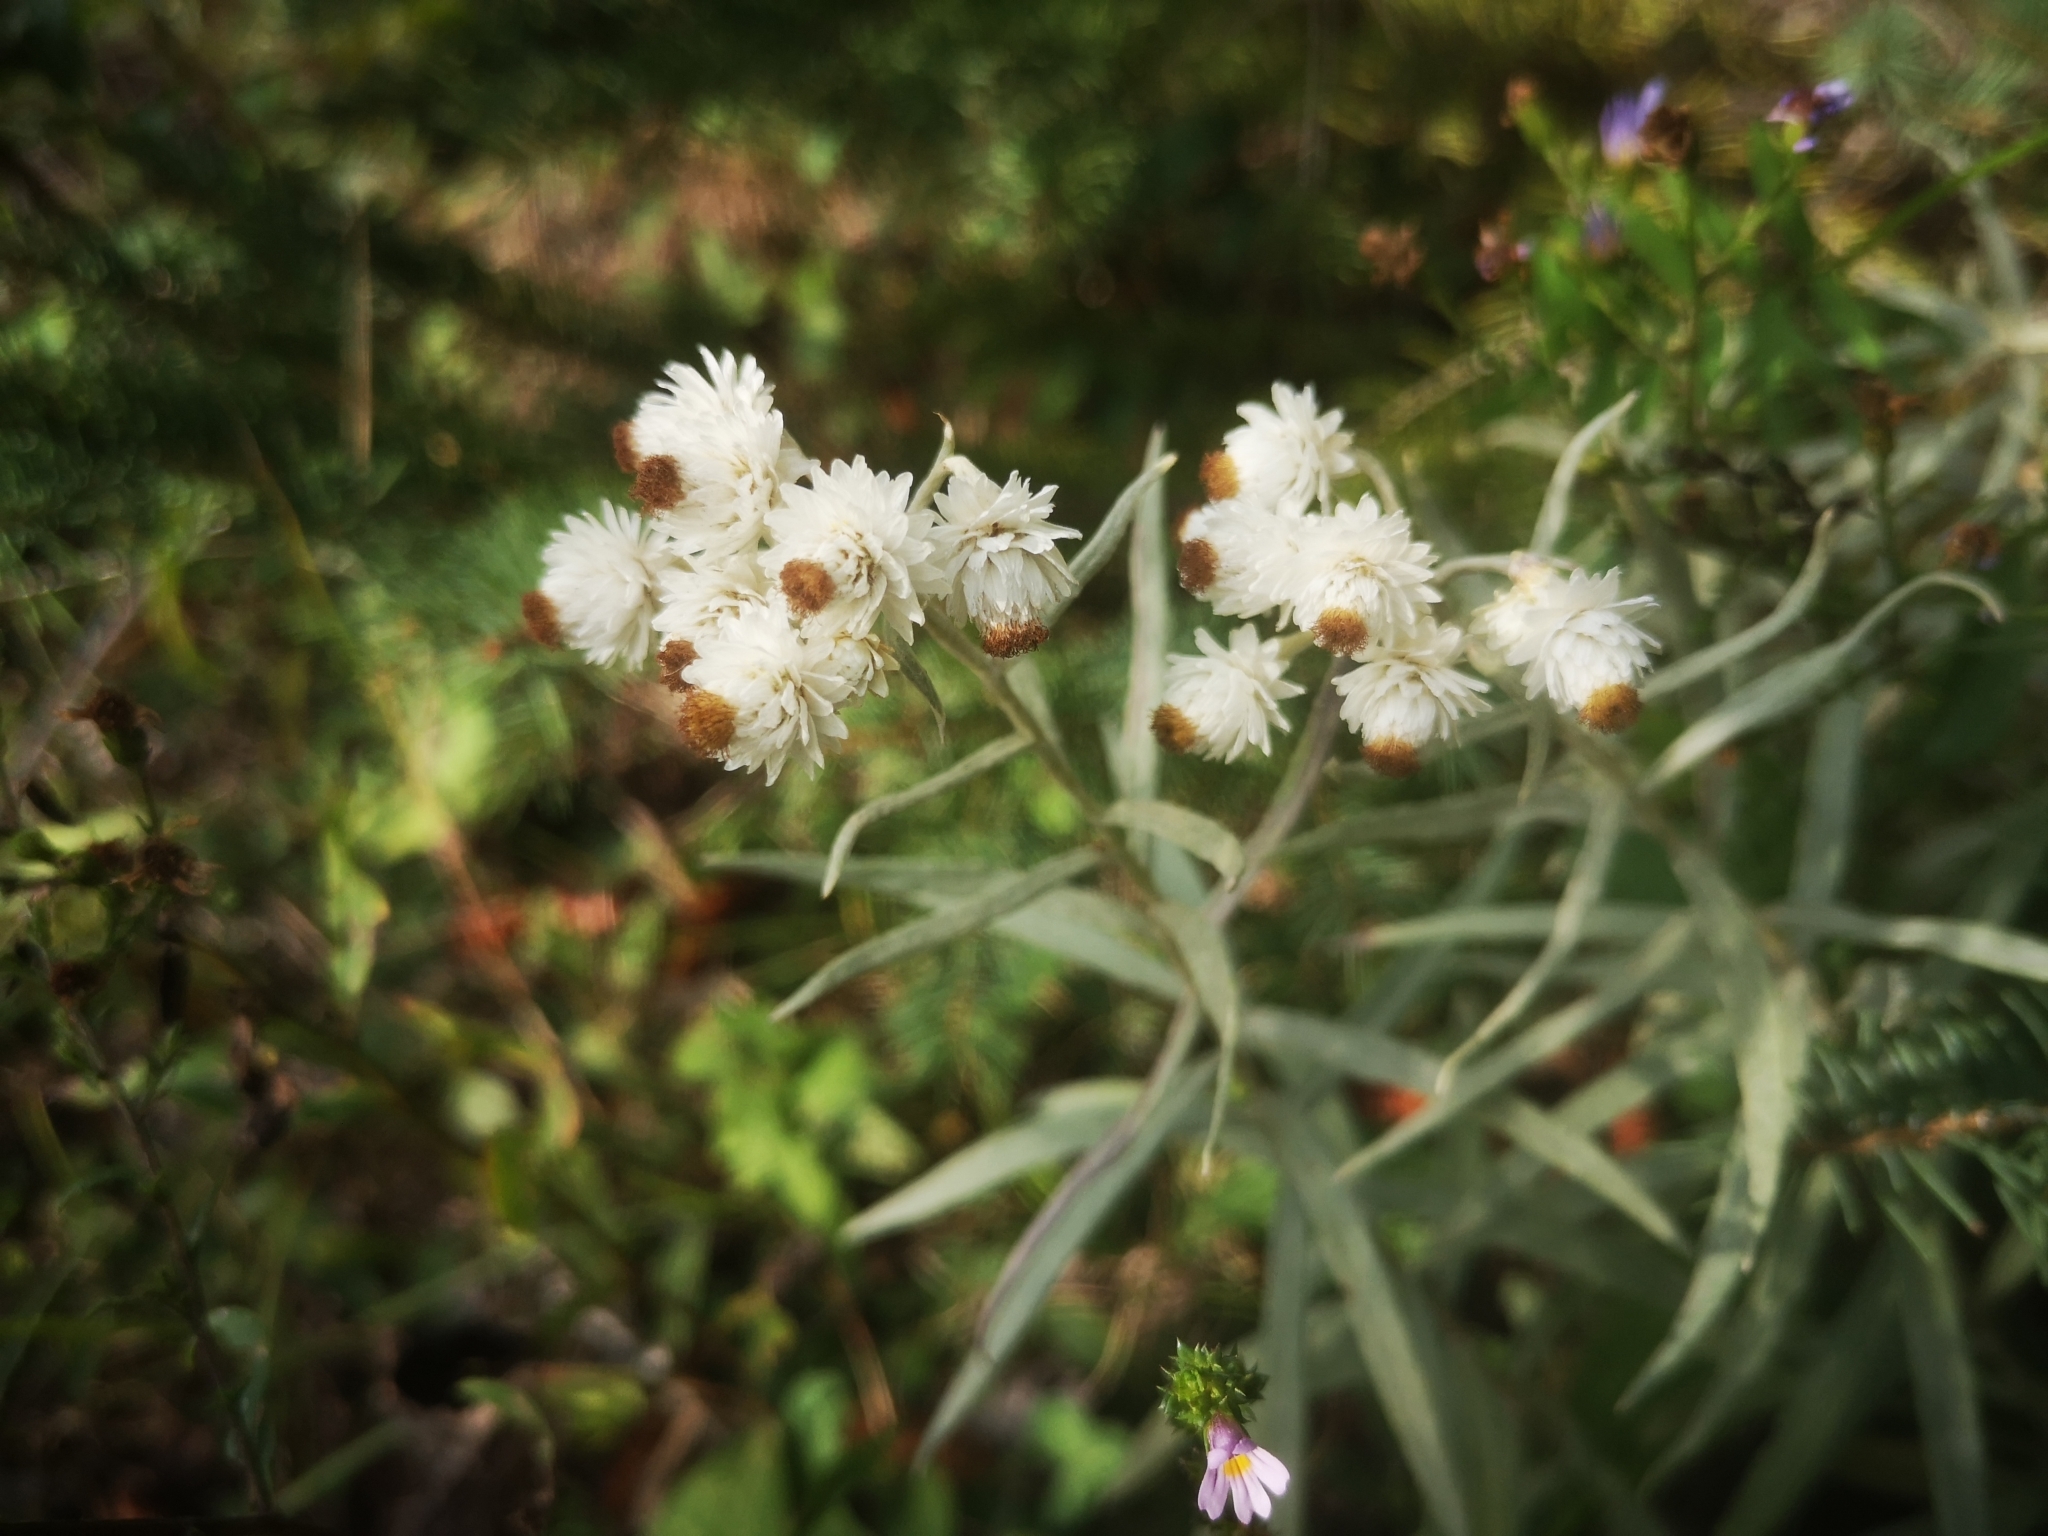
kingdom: Plantae
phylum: Tracheophyta
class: Magnoliopsida
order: Asterales
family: Asteraceae
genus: Anaphalis
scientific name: Anaphalis margaritacea
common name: Pearly everlasting
